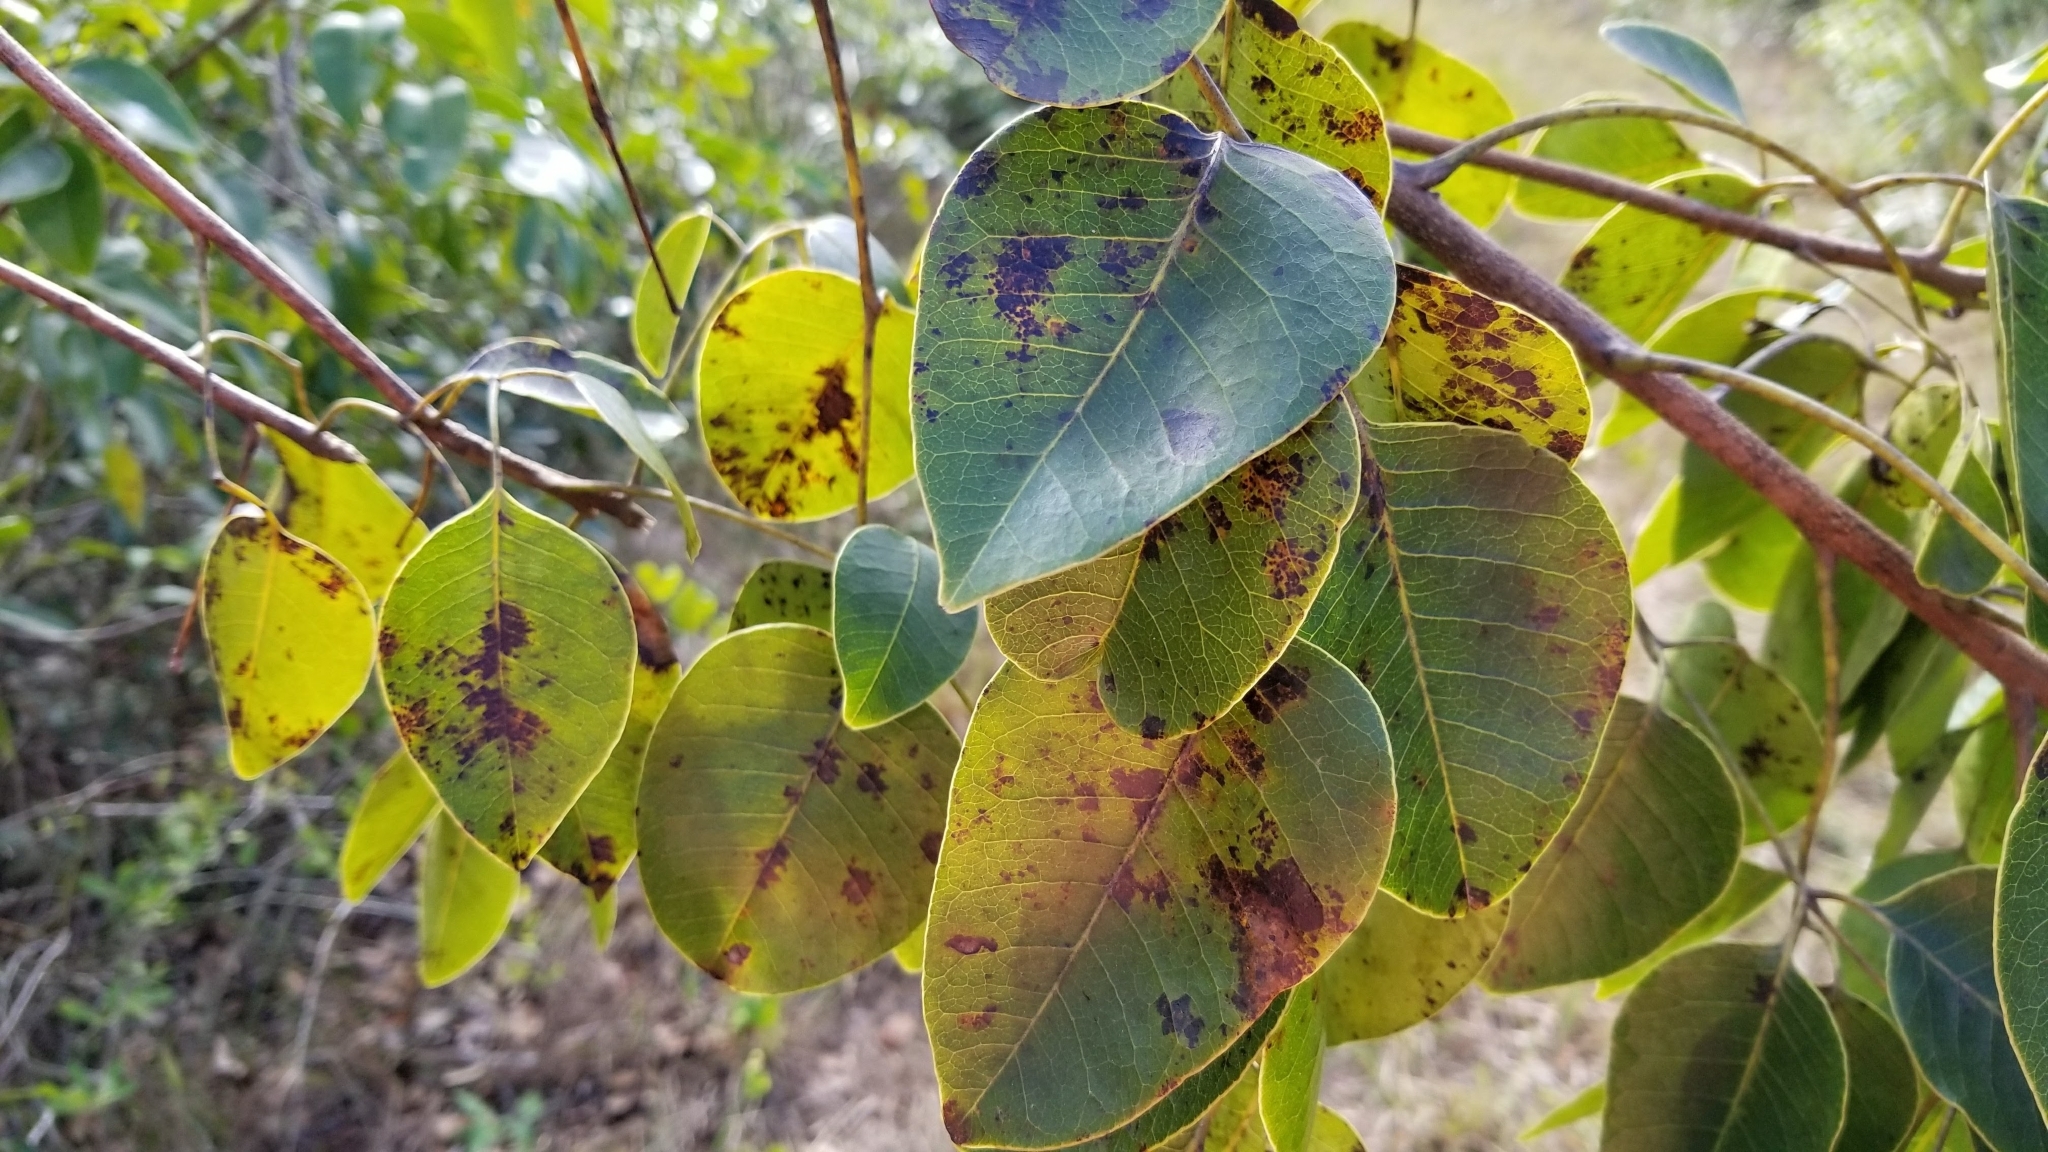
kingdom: Plantae
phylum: Tracheophyta
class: Magnoliopsida
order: Sapindales
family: Anacardiaceae
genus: Metopium
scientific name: Metopium toxiferum
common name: Florida poisontree
